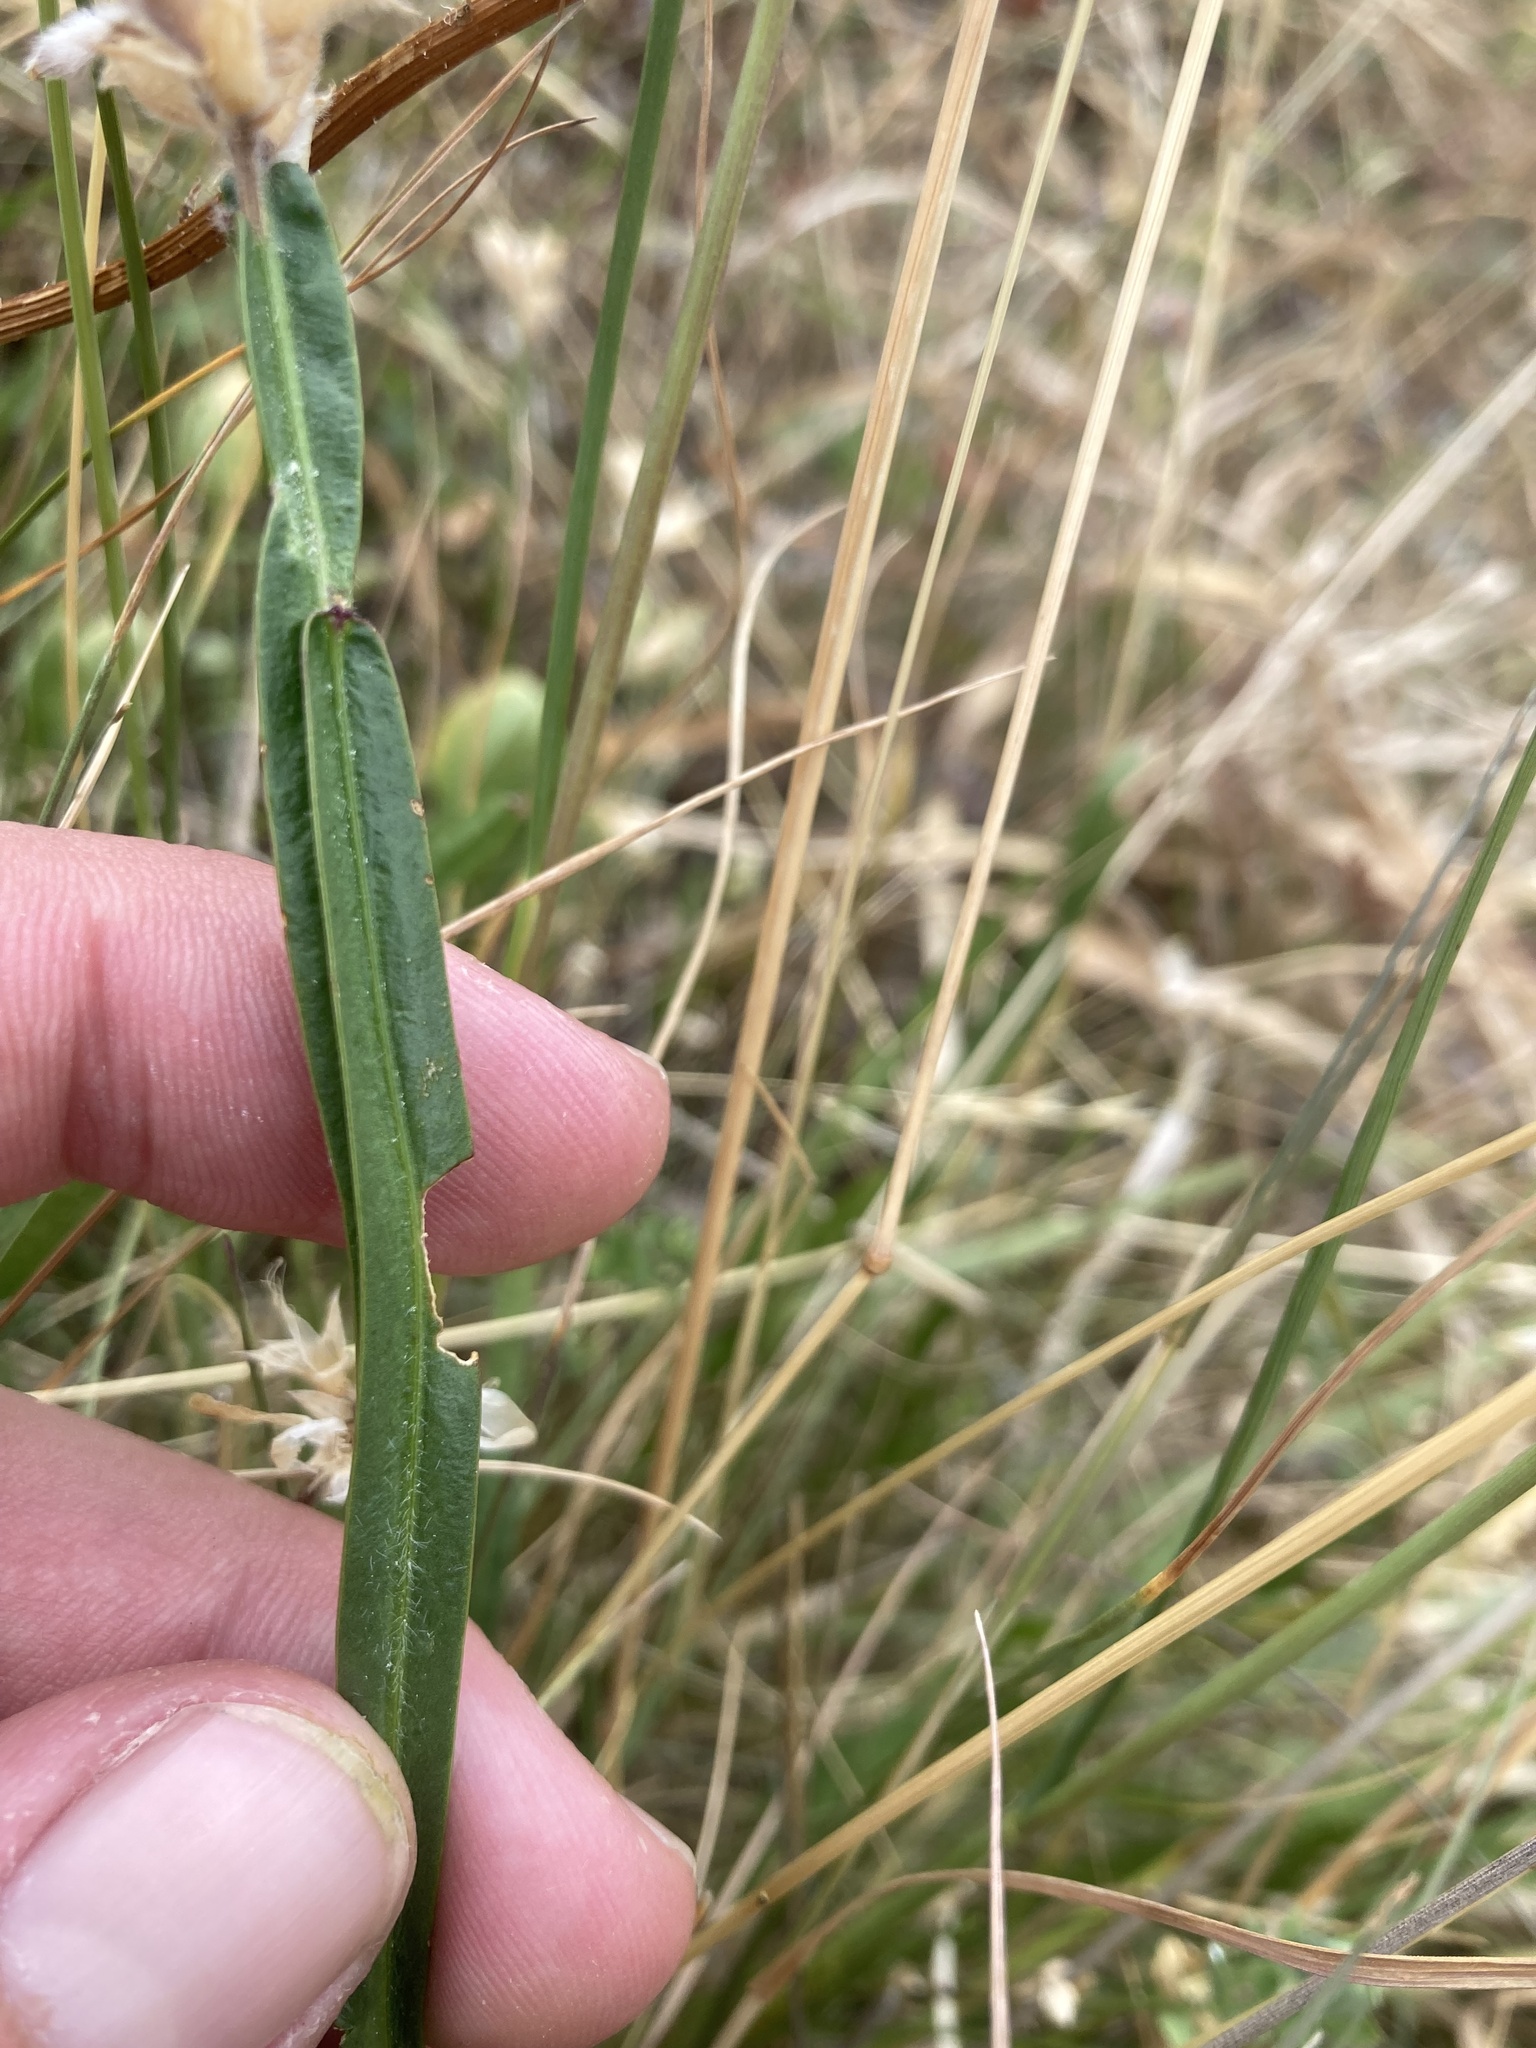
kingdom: Plantae
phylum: Tracheophyta
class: Magnoliopsida
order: Fabales
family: Fabaceae
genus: Genista
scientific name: Genista sagittalis
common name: Winged greenweed
